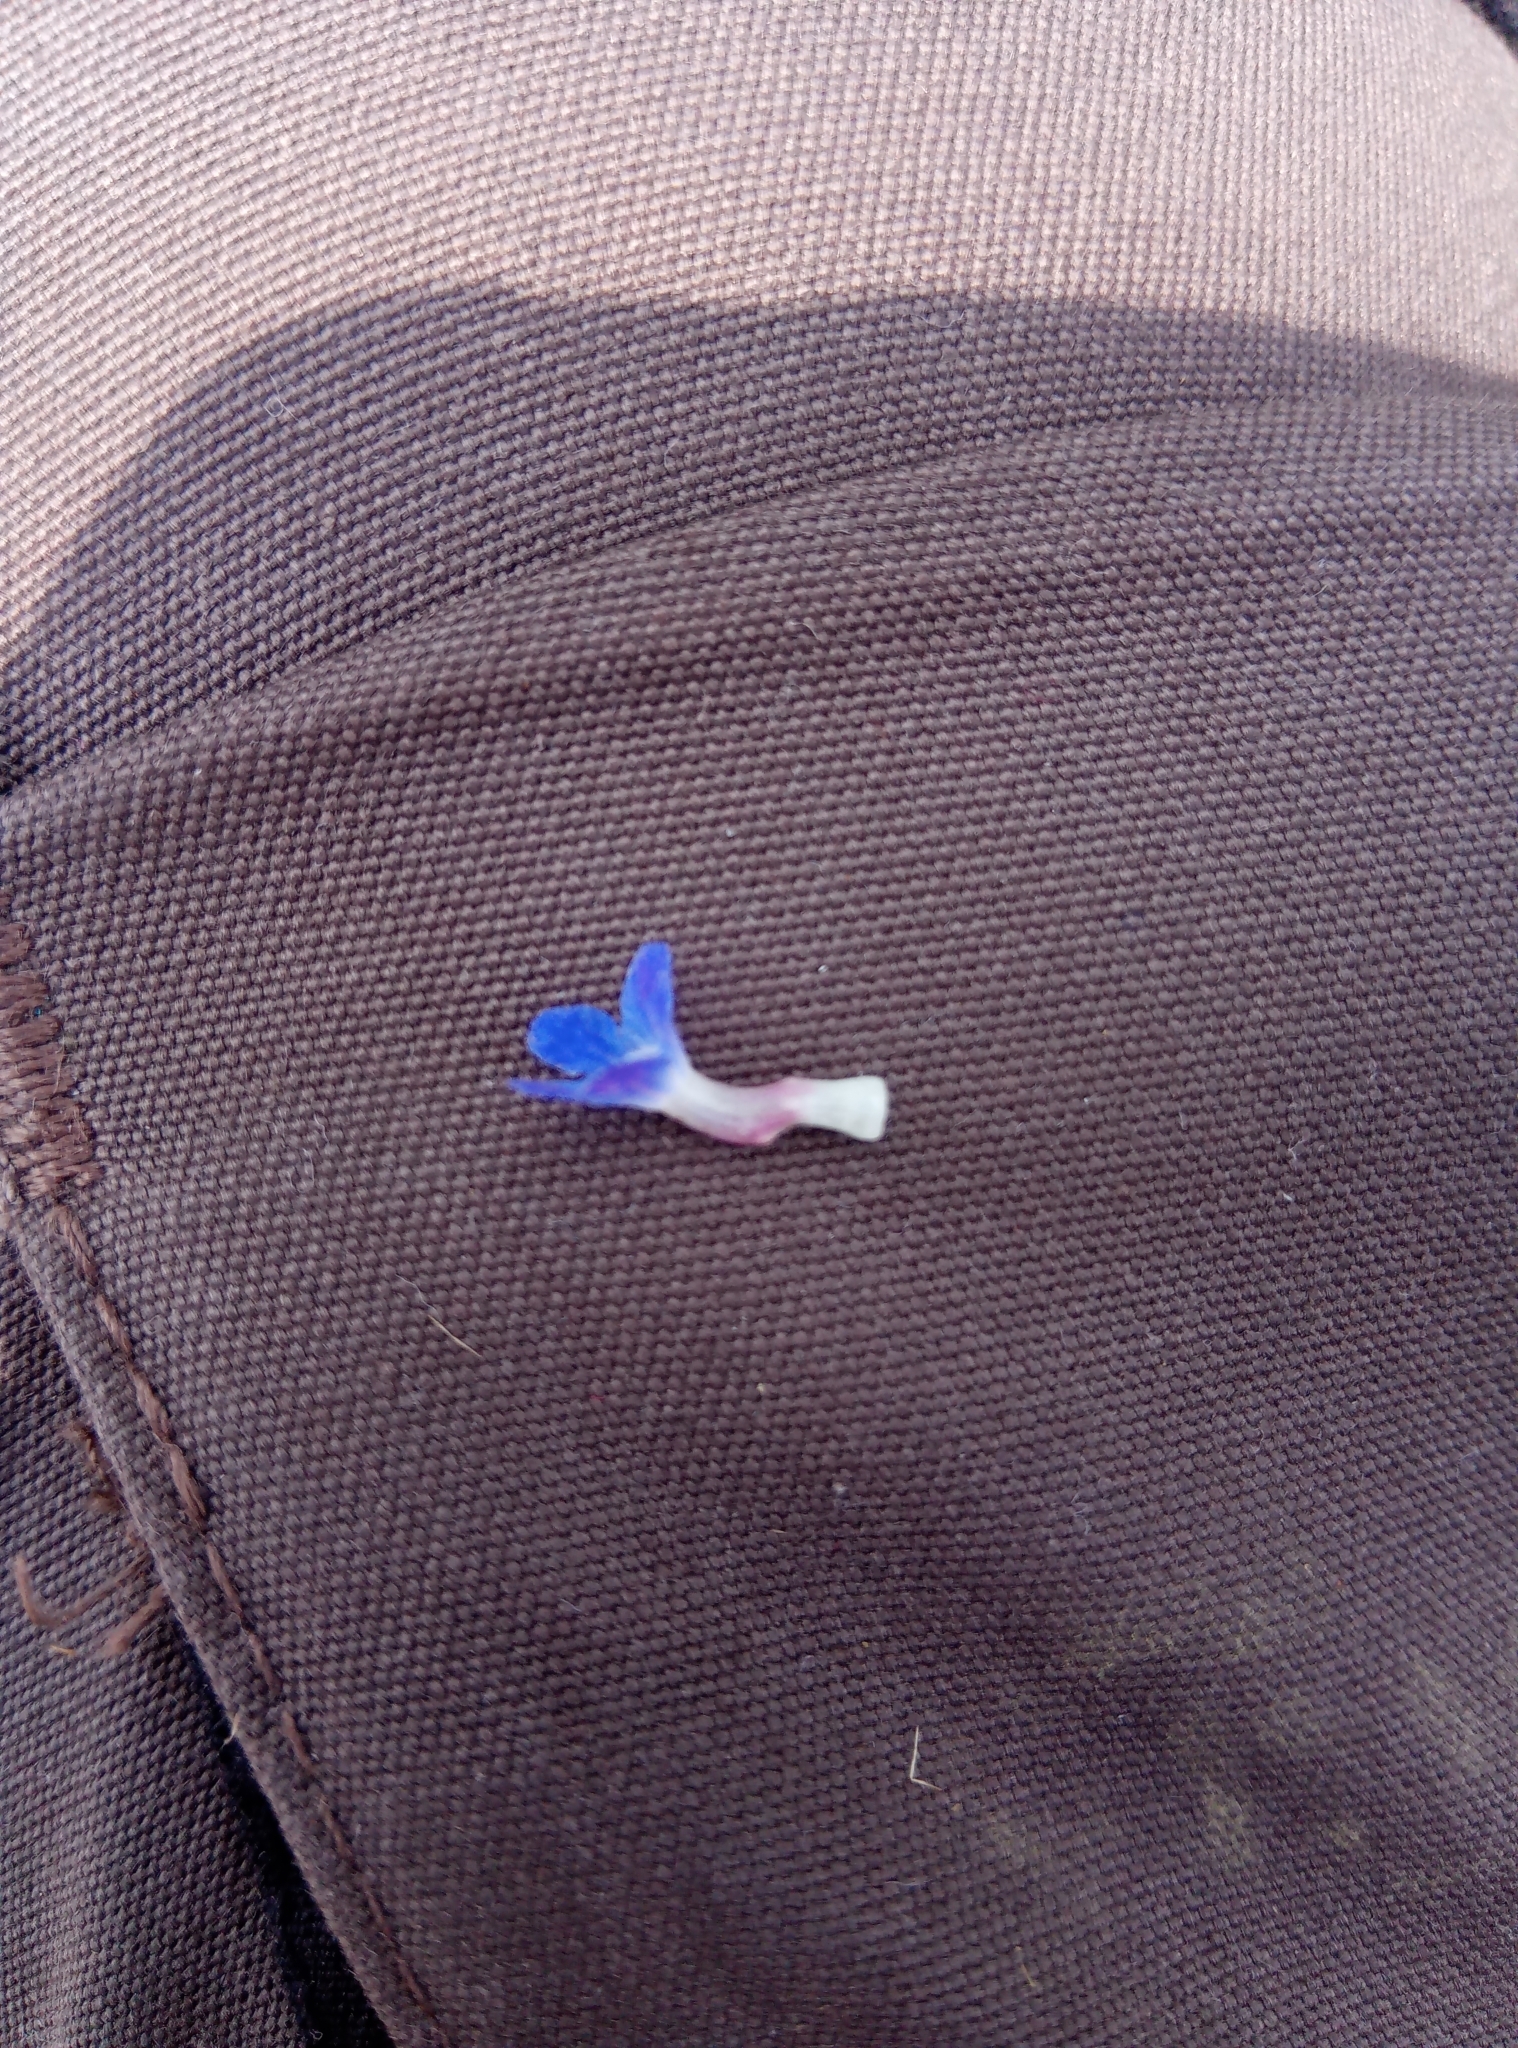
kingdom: Plantae
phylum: Tracheophyta
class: Magnoliopsida
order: Boraginales
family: Boraginaceae
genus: Lycopsis
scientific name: Lycopsis arvensis
